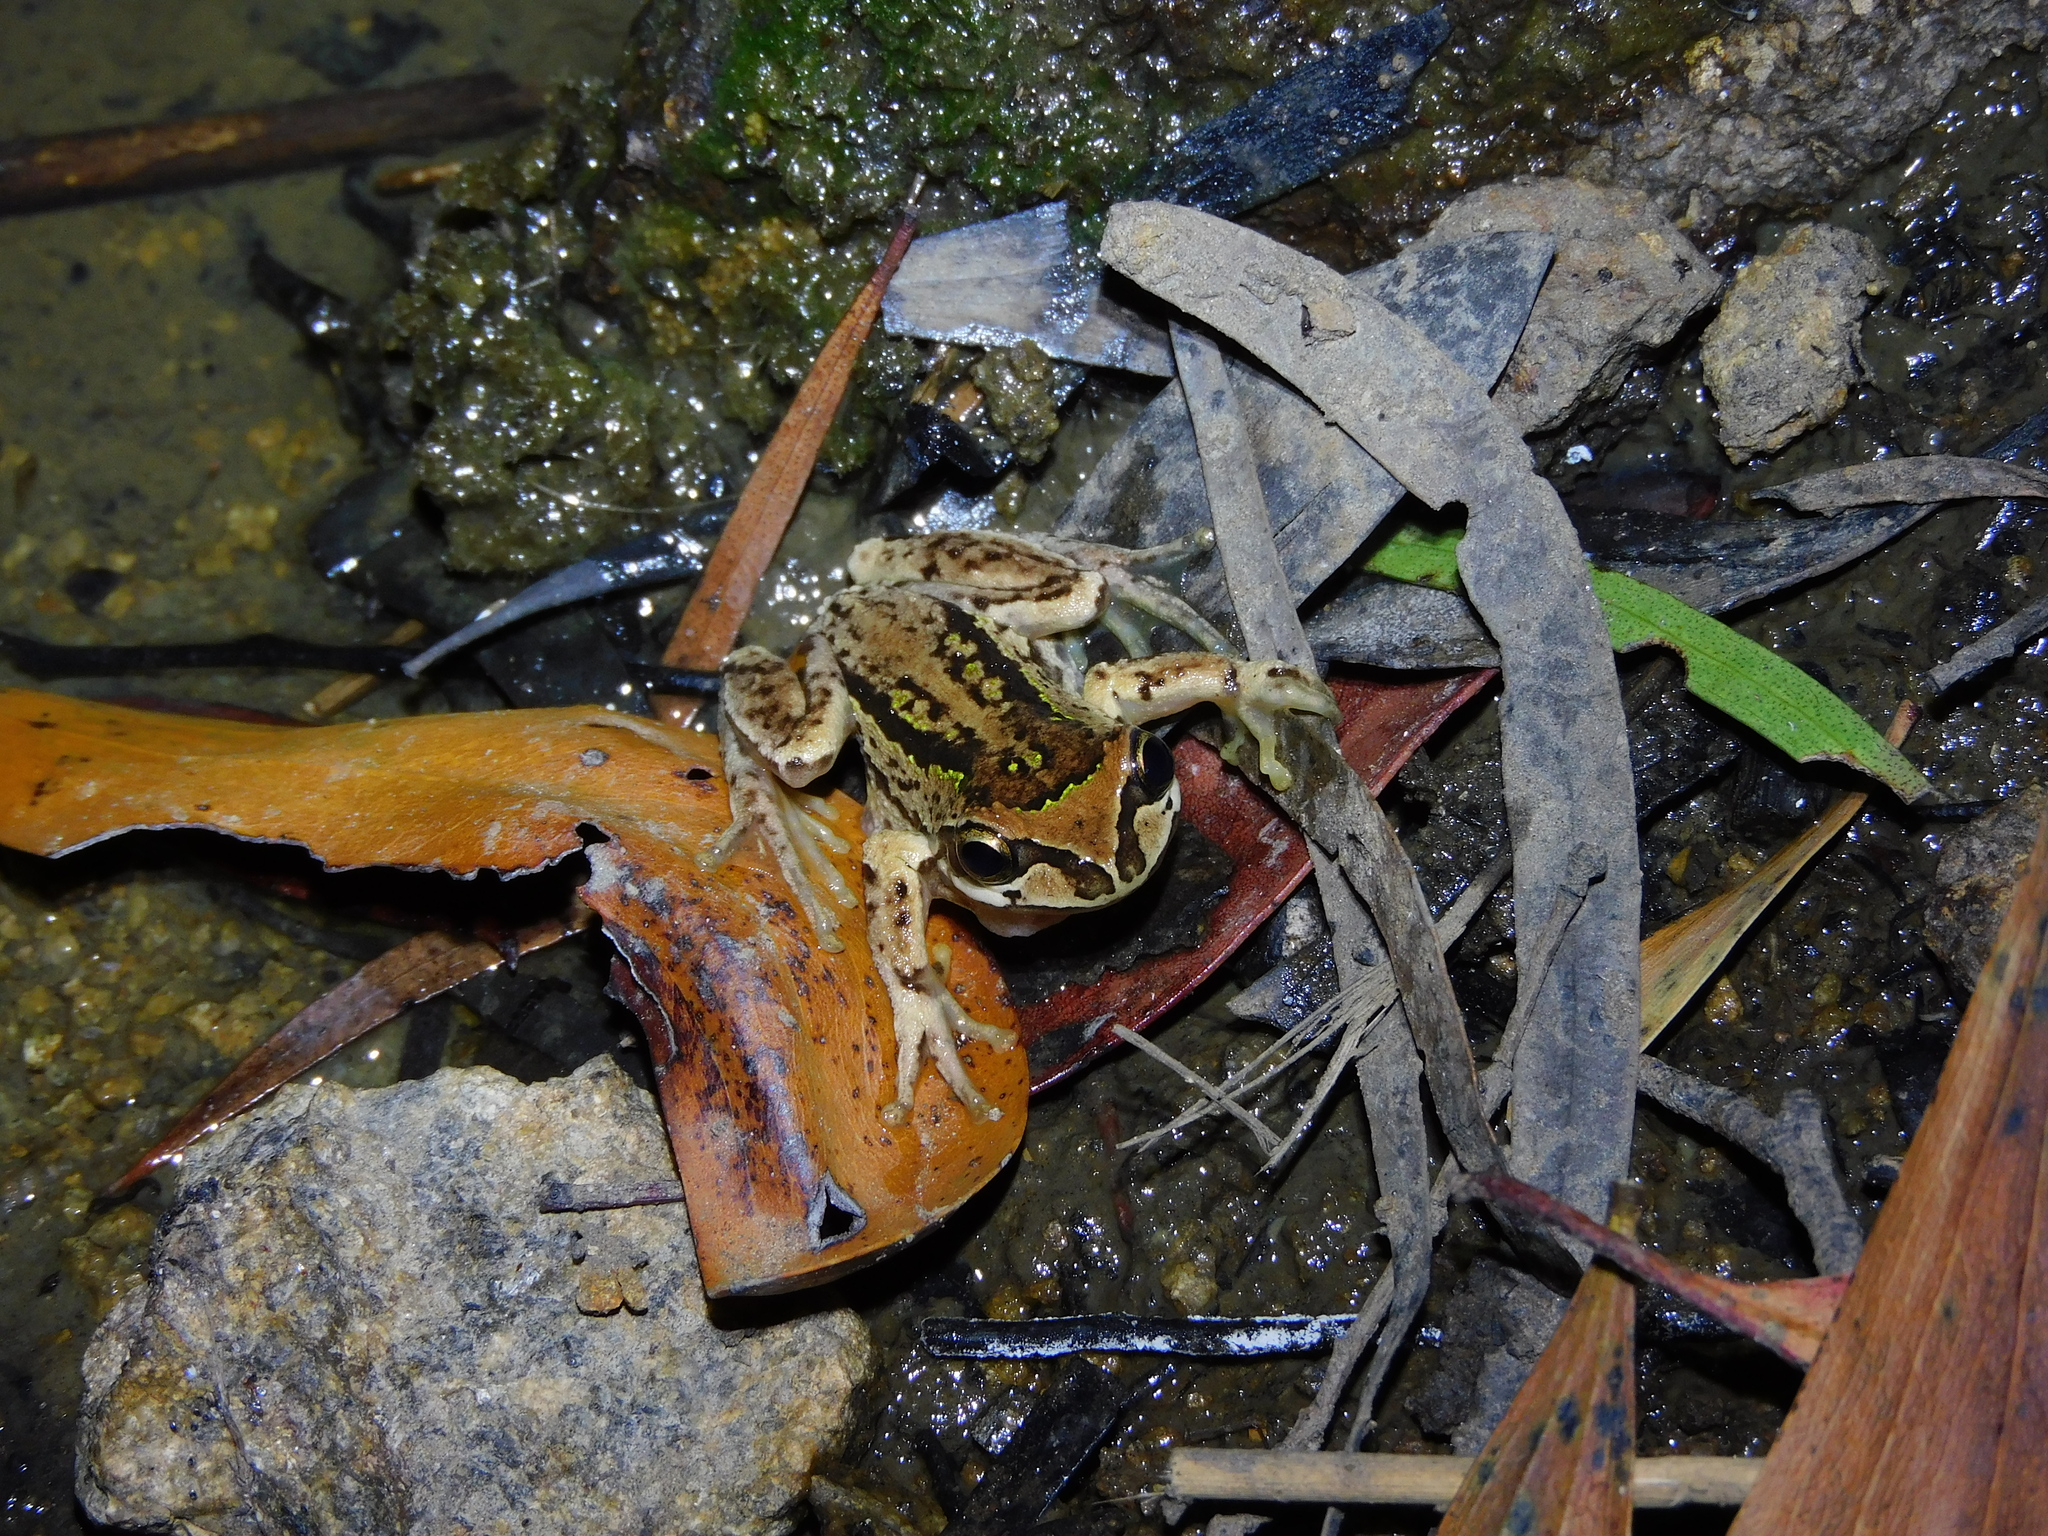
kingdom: Animalia
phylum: Chordata
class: Amphibia
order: Anura
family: Pelodryadidae
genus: Litoria
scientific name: Litoria ewingii
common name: Southern brown tree frog
